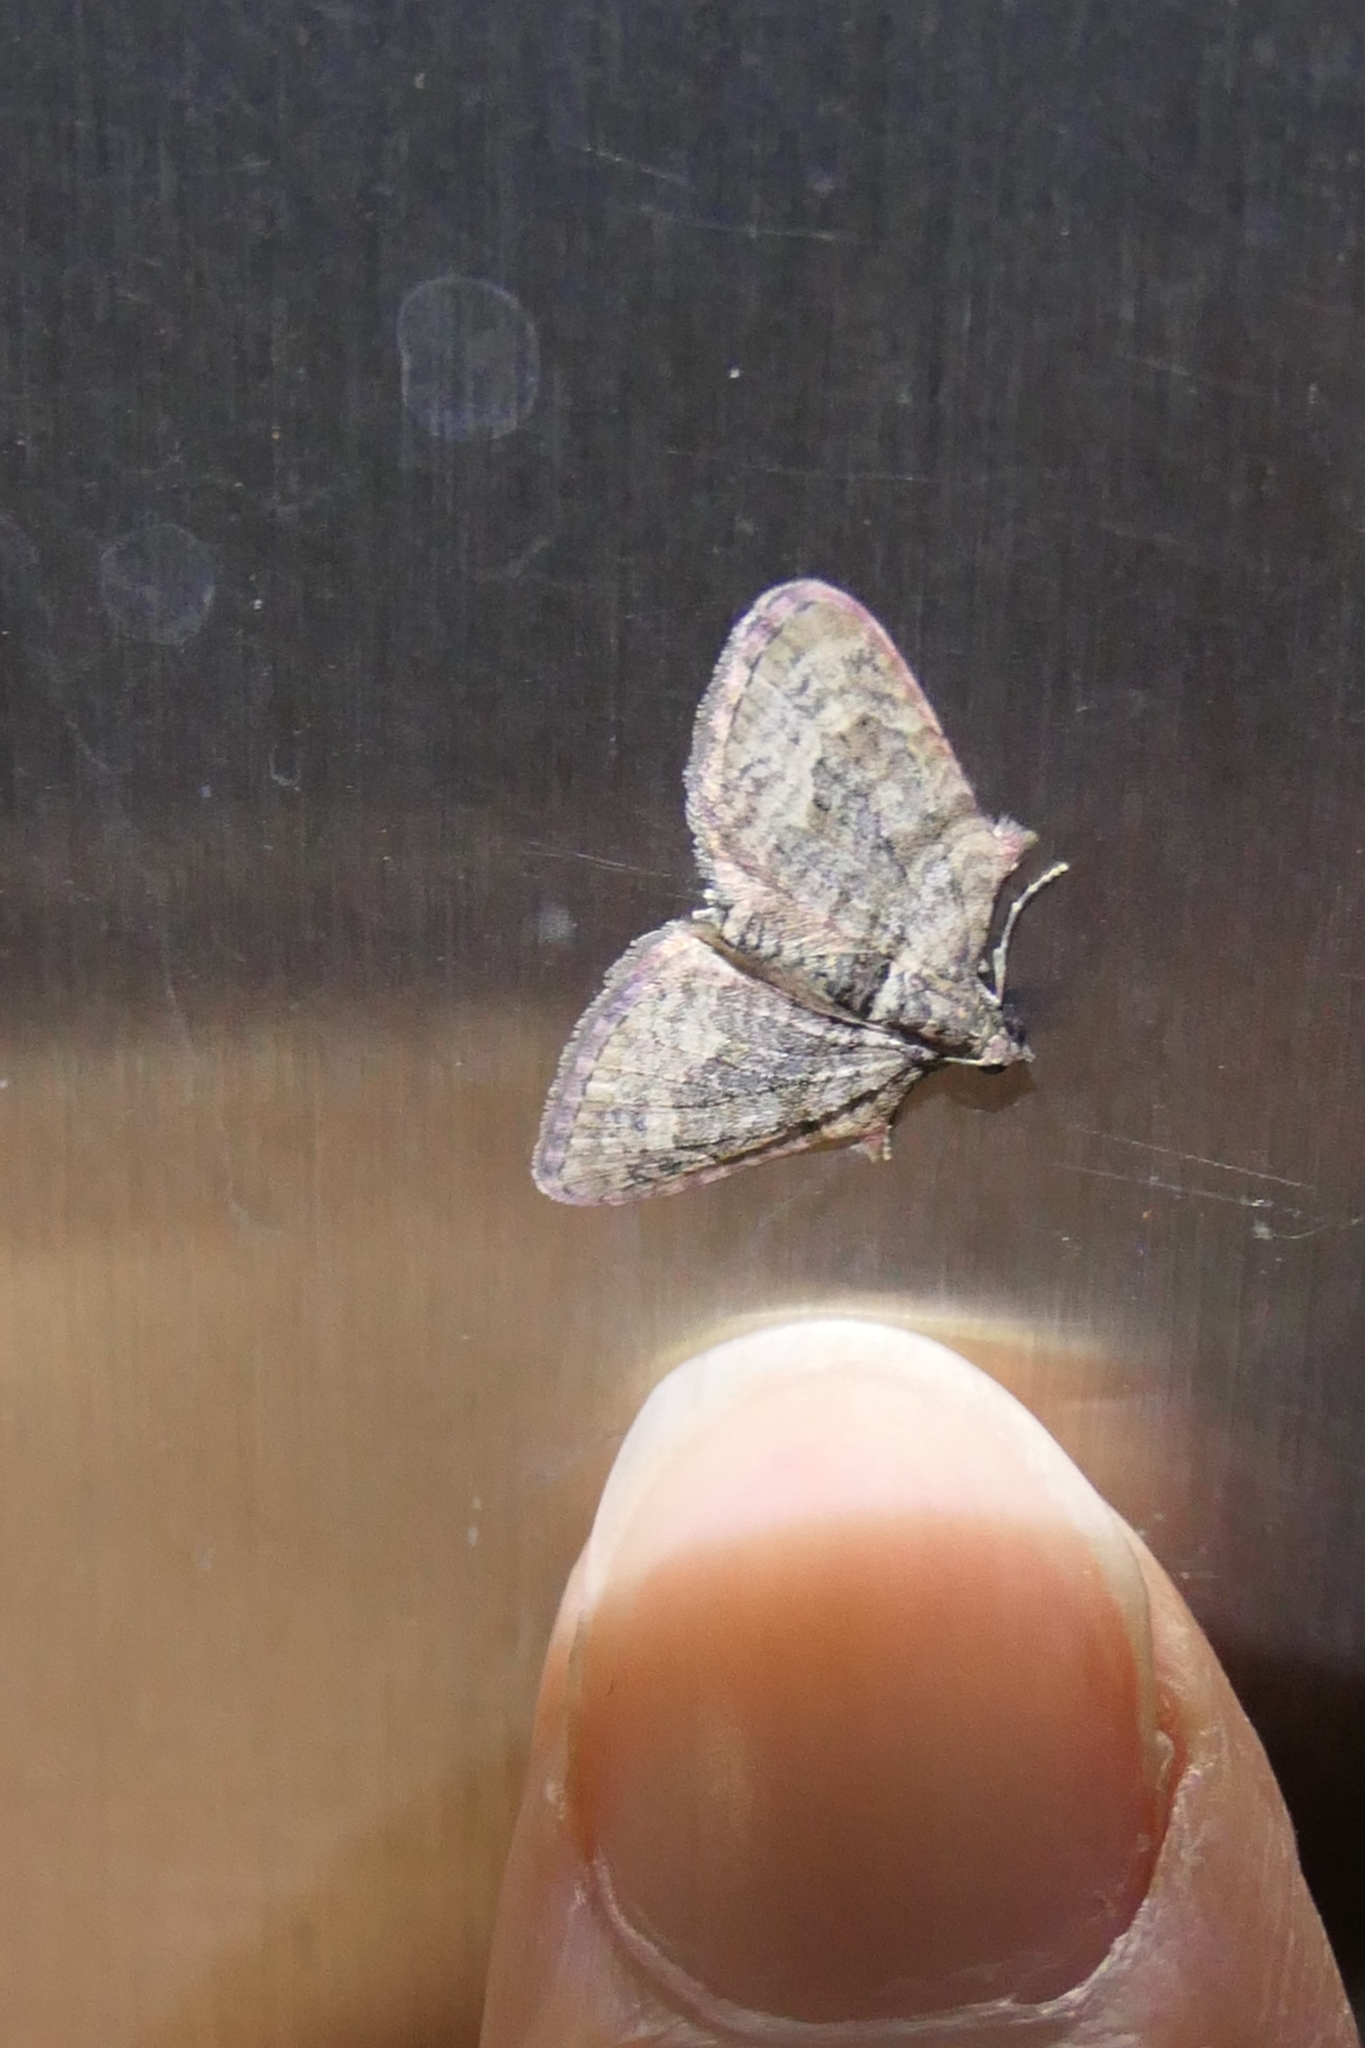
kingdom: Animalia
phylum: Arthropoda
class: Insecta
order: Lepidoptera
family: Geometridae
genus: Phrissogonus
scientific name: Phrissogonus laticostata
